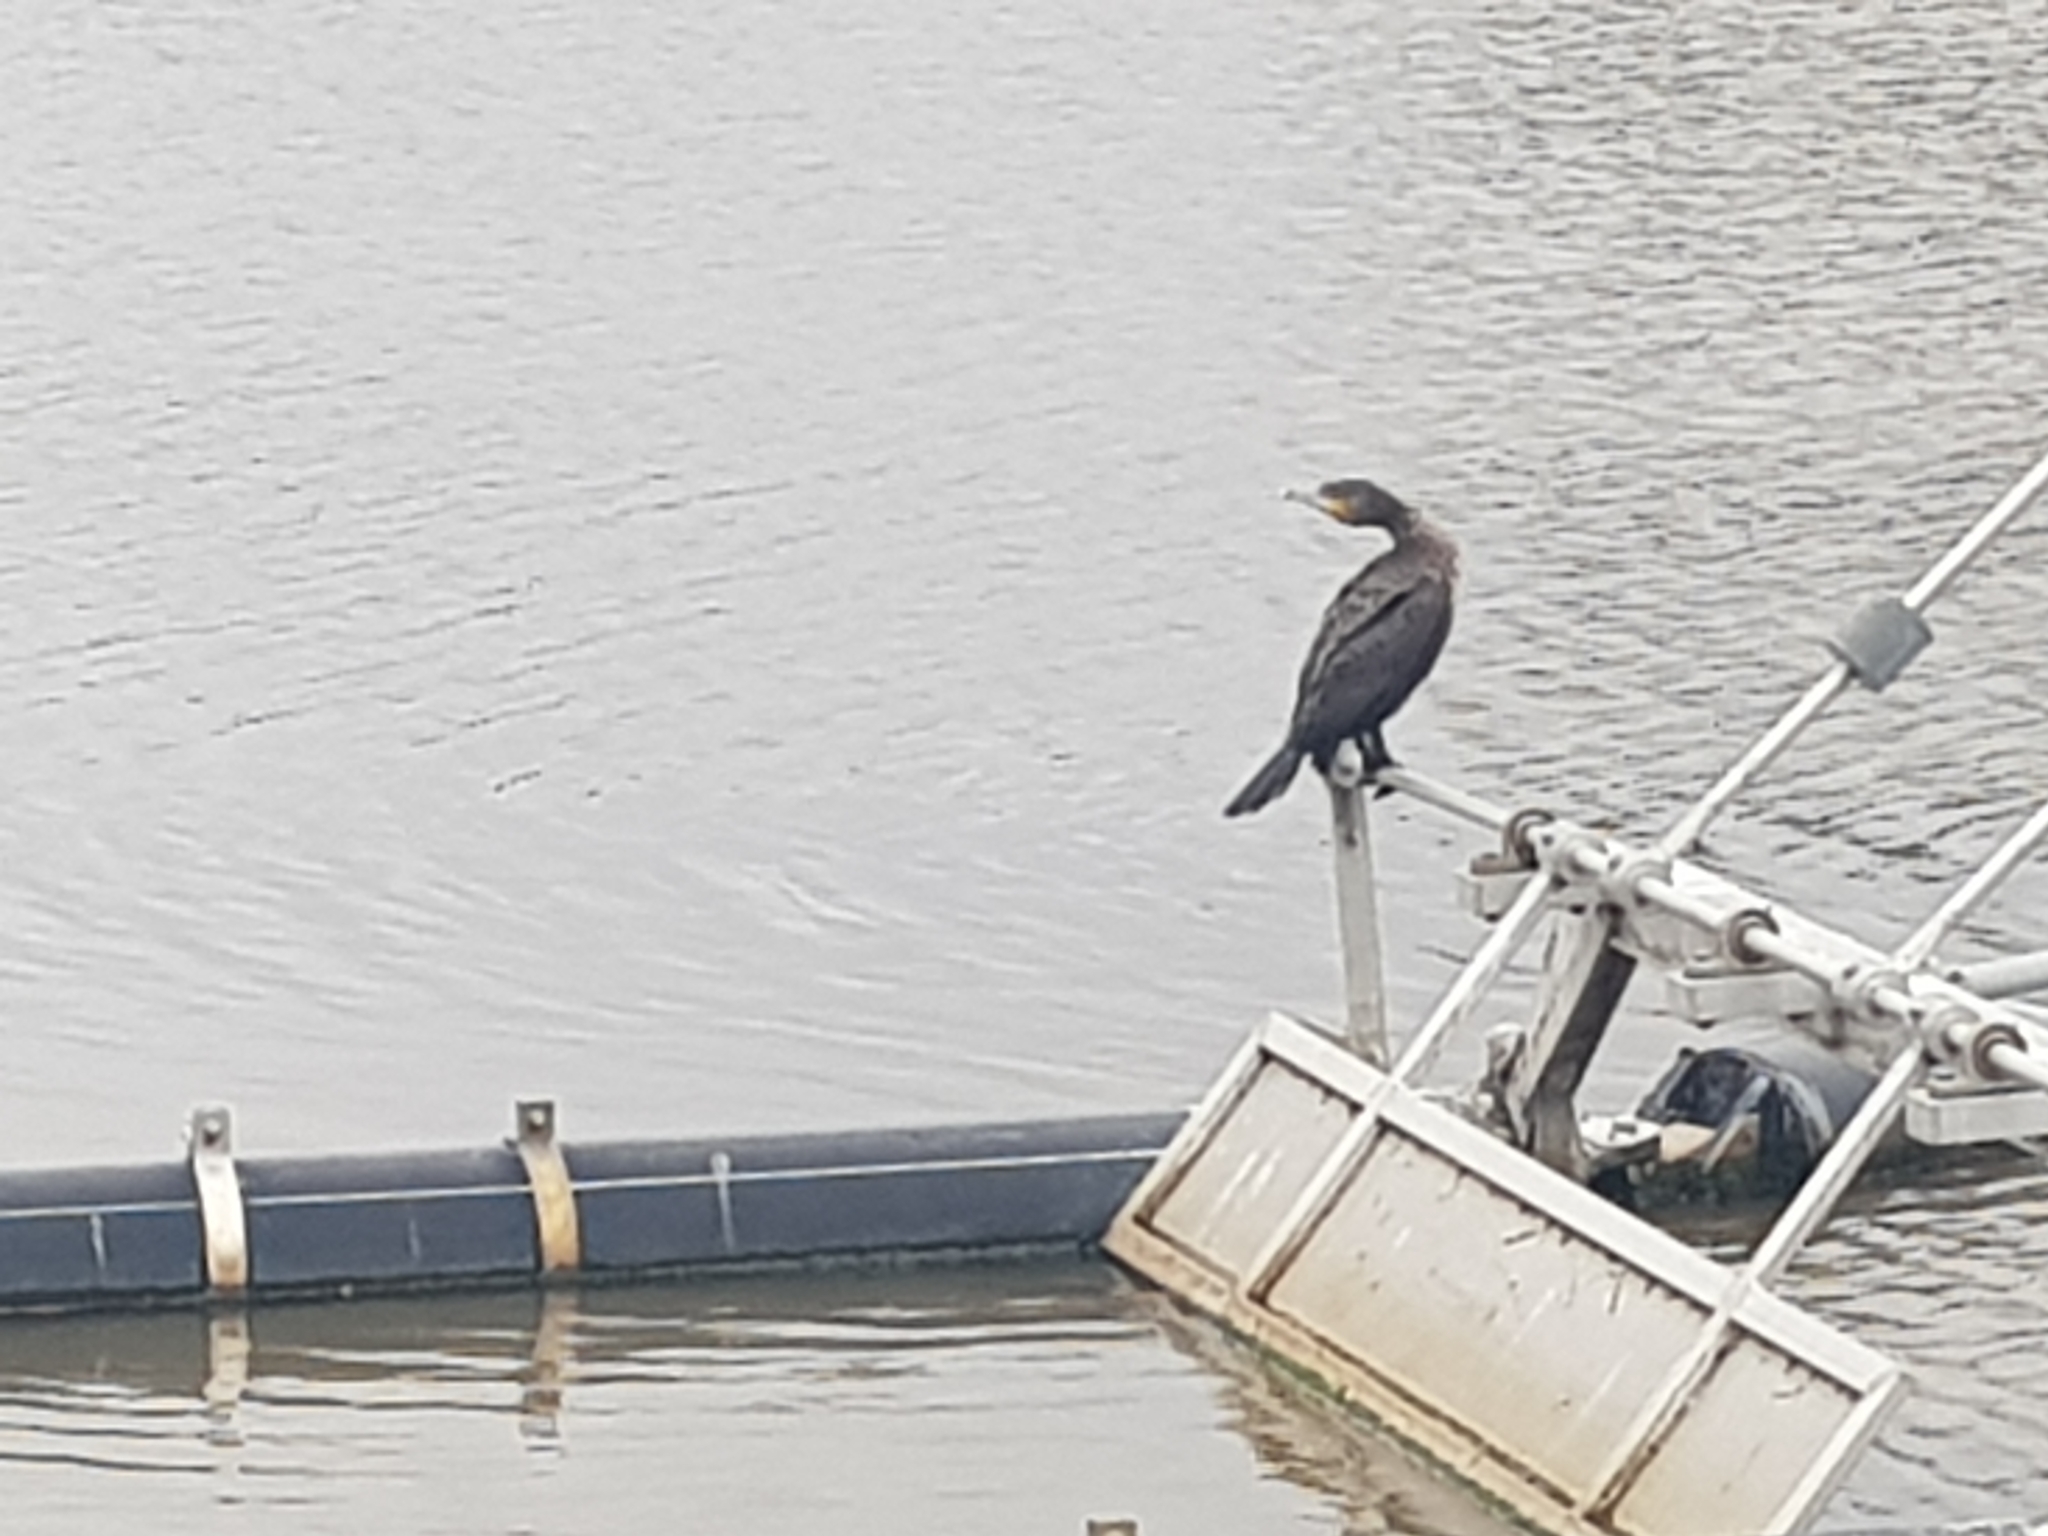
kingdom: Animalia
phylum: Chordata
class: Aves
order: Suliformes
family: Phalacrocoracidae
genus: Phalacrocorax
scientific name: Phalacrocorax carbo
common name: Great cormorant
